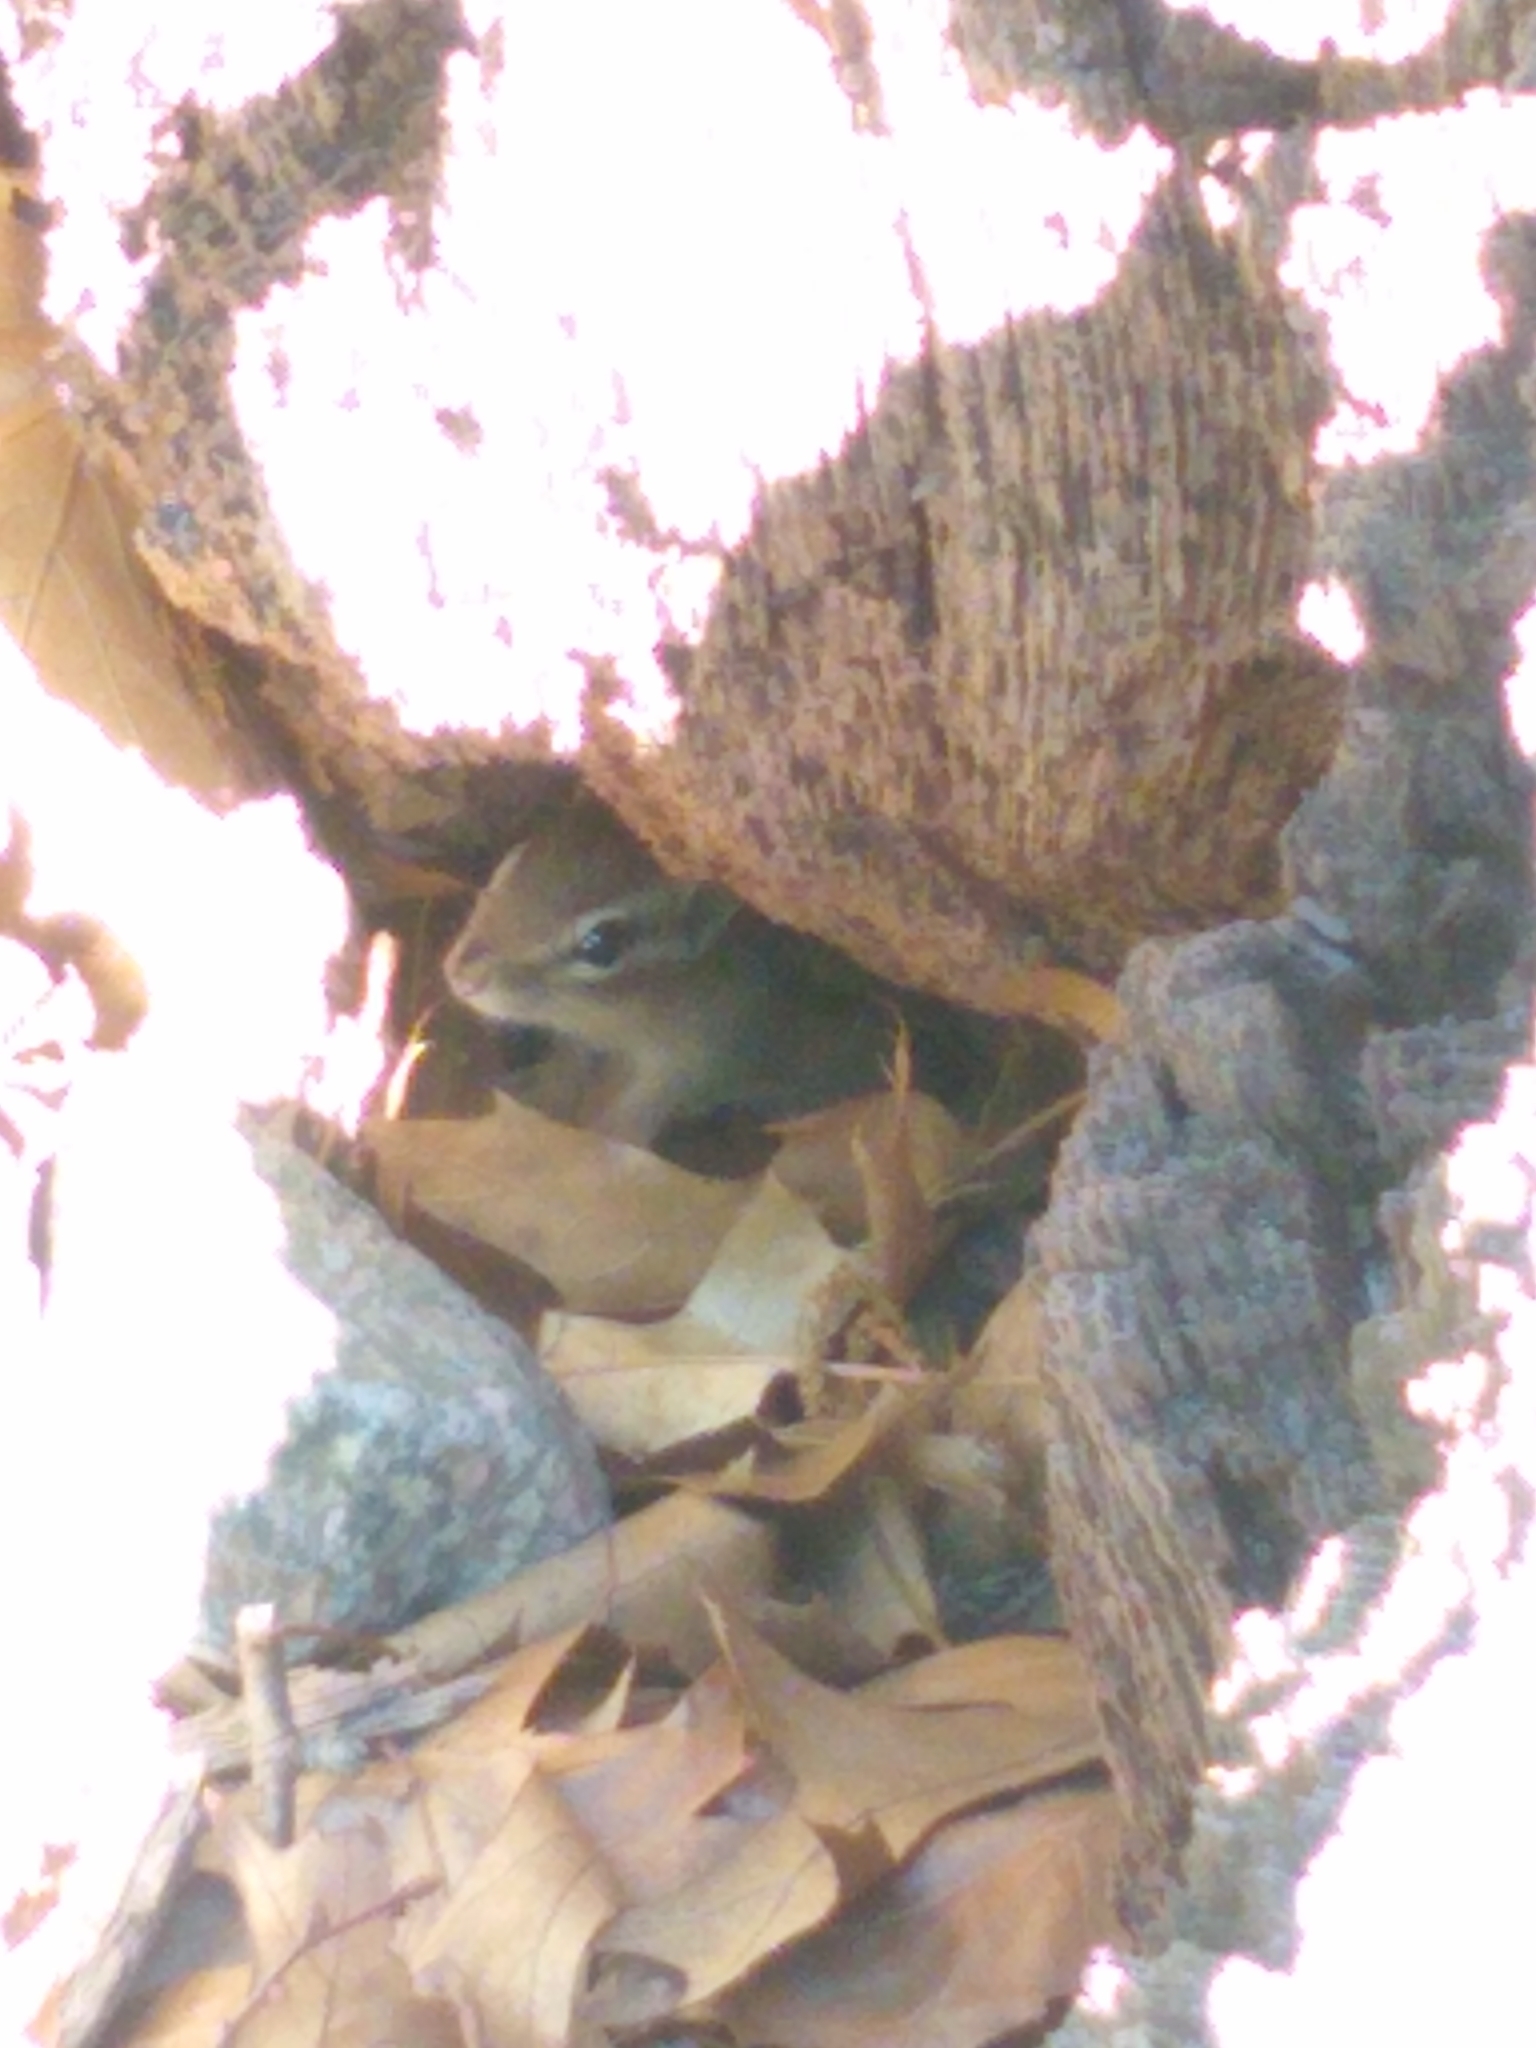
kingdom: Animalia
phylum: Chordata
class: Mammalia
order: Rodentia
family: Sciuridae
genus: Tamias
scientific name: Tamias striatus
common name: Eastern chipmunk
